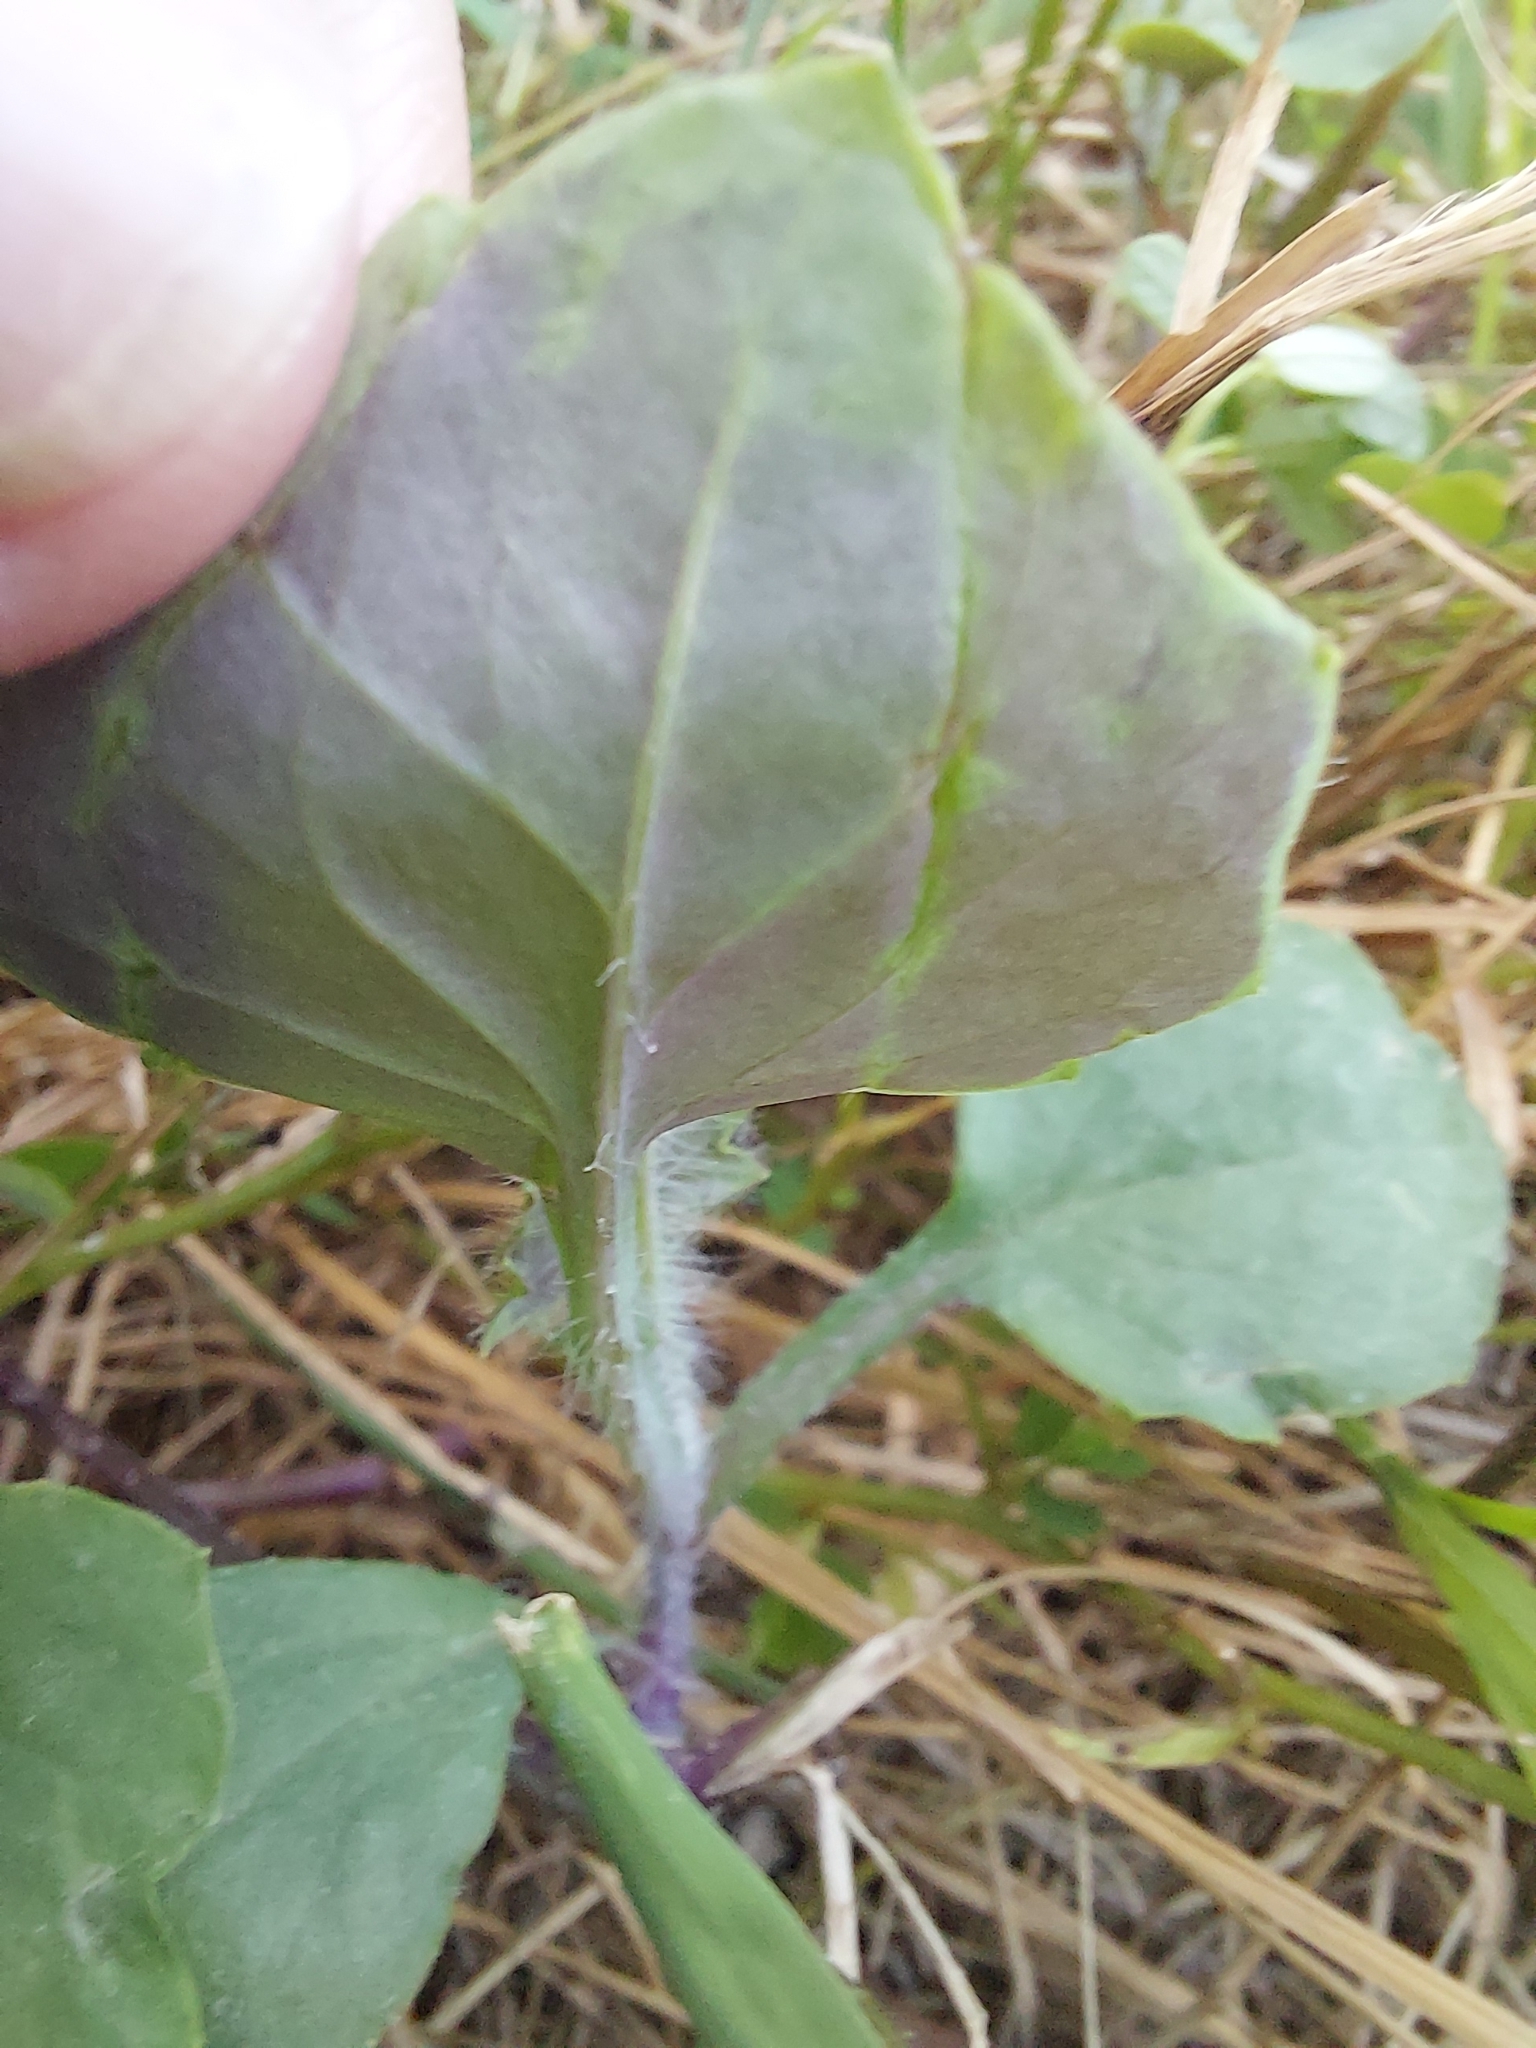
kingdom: Plantae
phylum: Tracheophyta
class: Magnoliopsida
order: Asterales
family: Asteraceae
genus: Emilia
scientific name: Emilia javanica
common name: Tassel-flower
